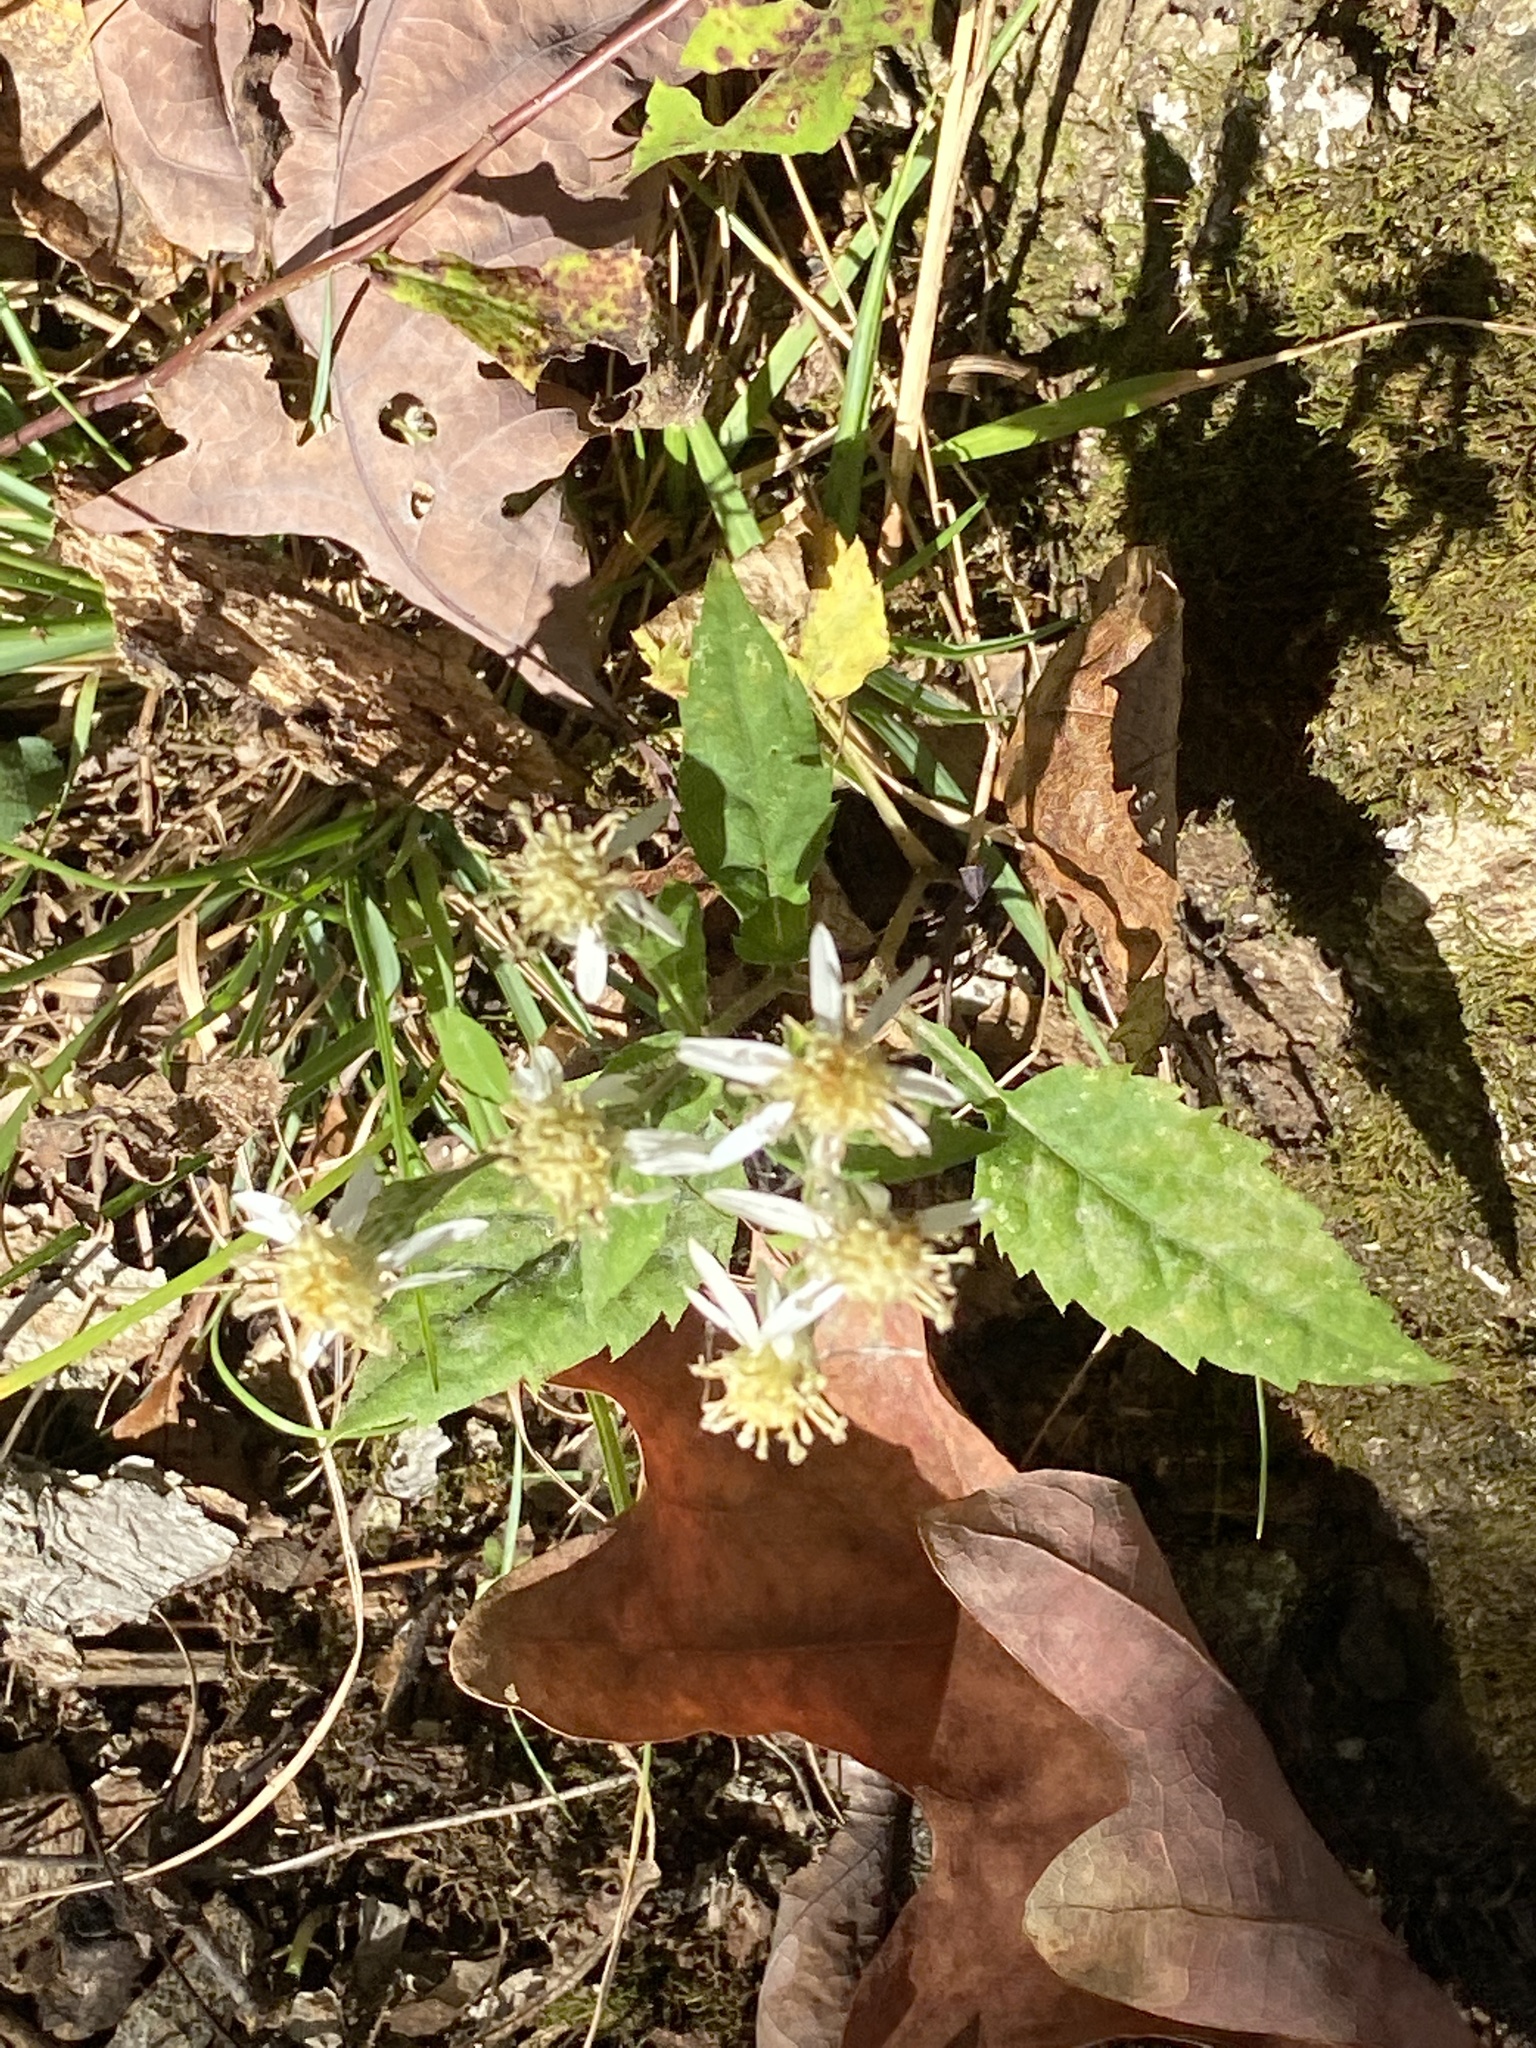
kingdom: Plantae
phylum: Tracheophyta
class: Magnoliopsida
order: Asterales
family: Asteraceae
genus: Eurybia
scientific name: Eurybia divaricata
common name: White wood aster
